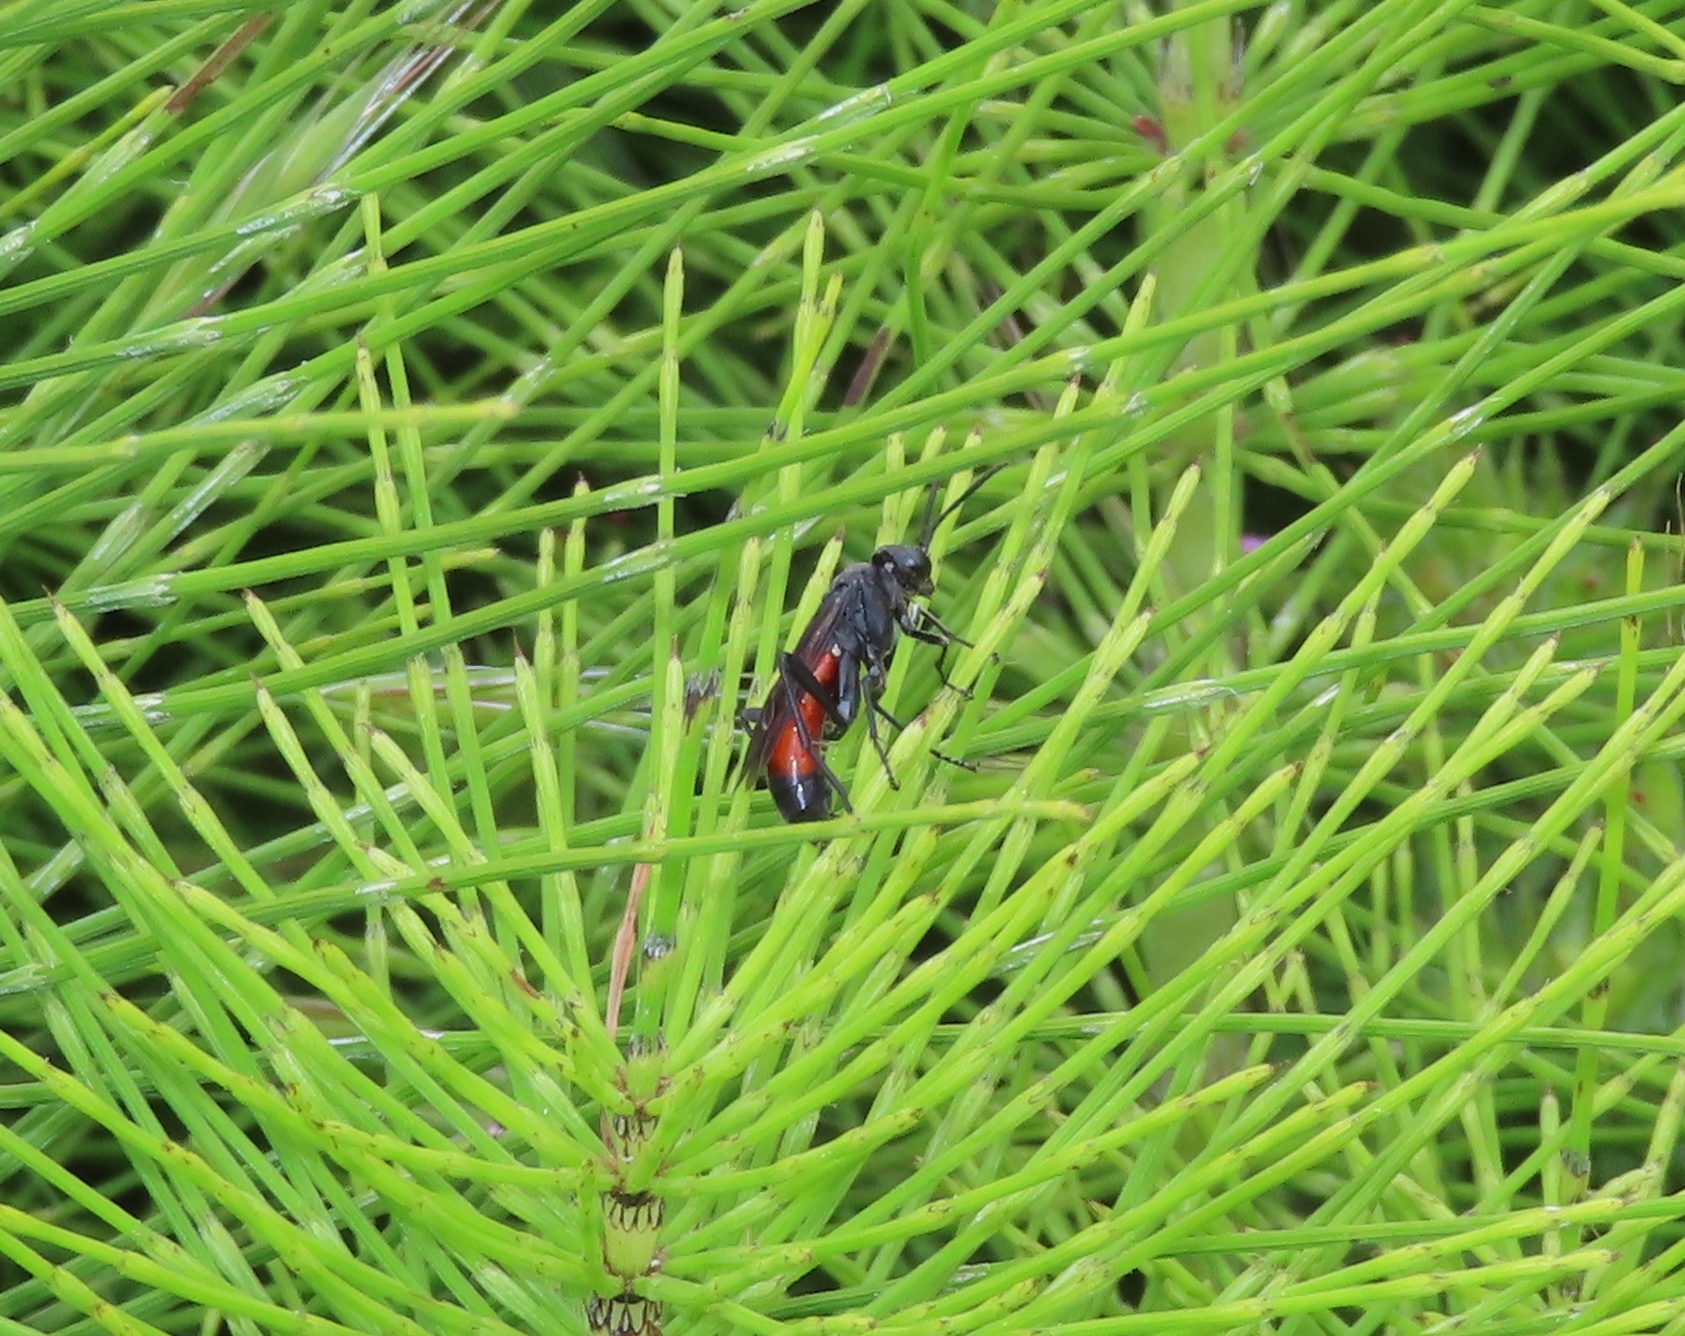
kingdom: Animalia
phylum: Arthropoda
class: Insecta
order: Hymenoptera
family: Tenthredinidae
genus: Macrophya
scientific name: Macrophya annulata
